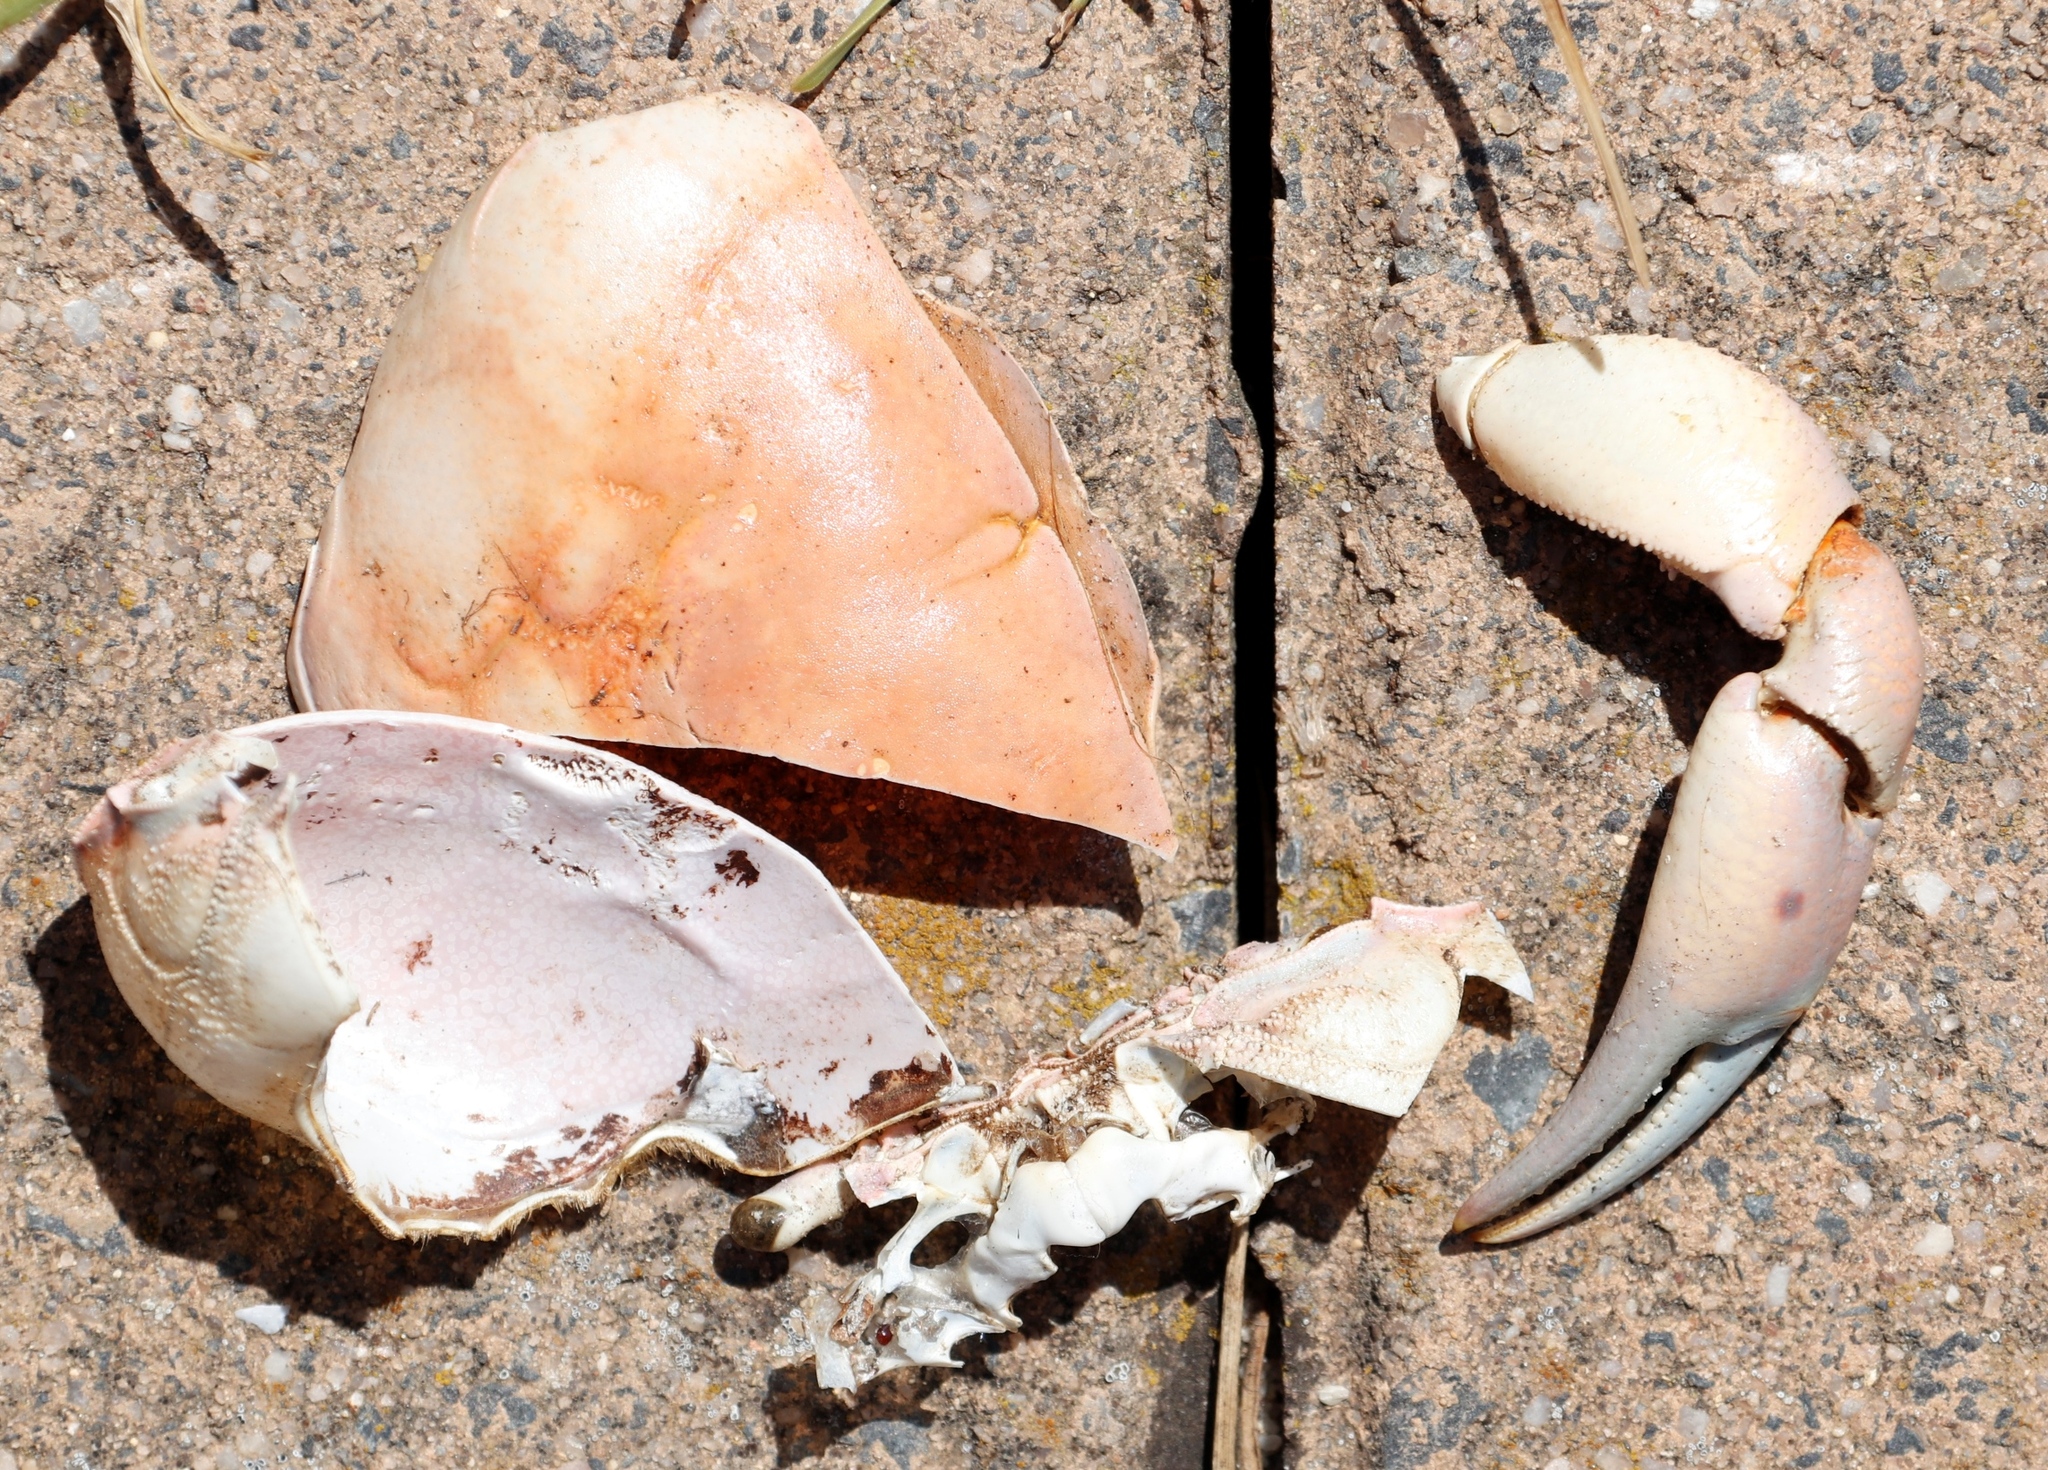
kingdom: Animalia
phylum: Arthropoda
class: Malacostraca
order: Decapoda
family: Potamonautidae
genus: Potamonautes
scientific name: Potamonautes perlatus
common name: Cape river crab
